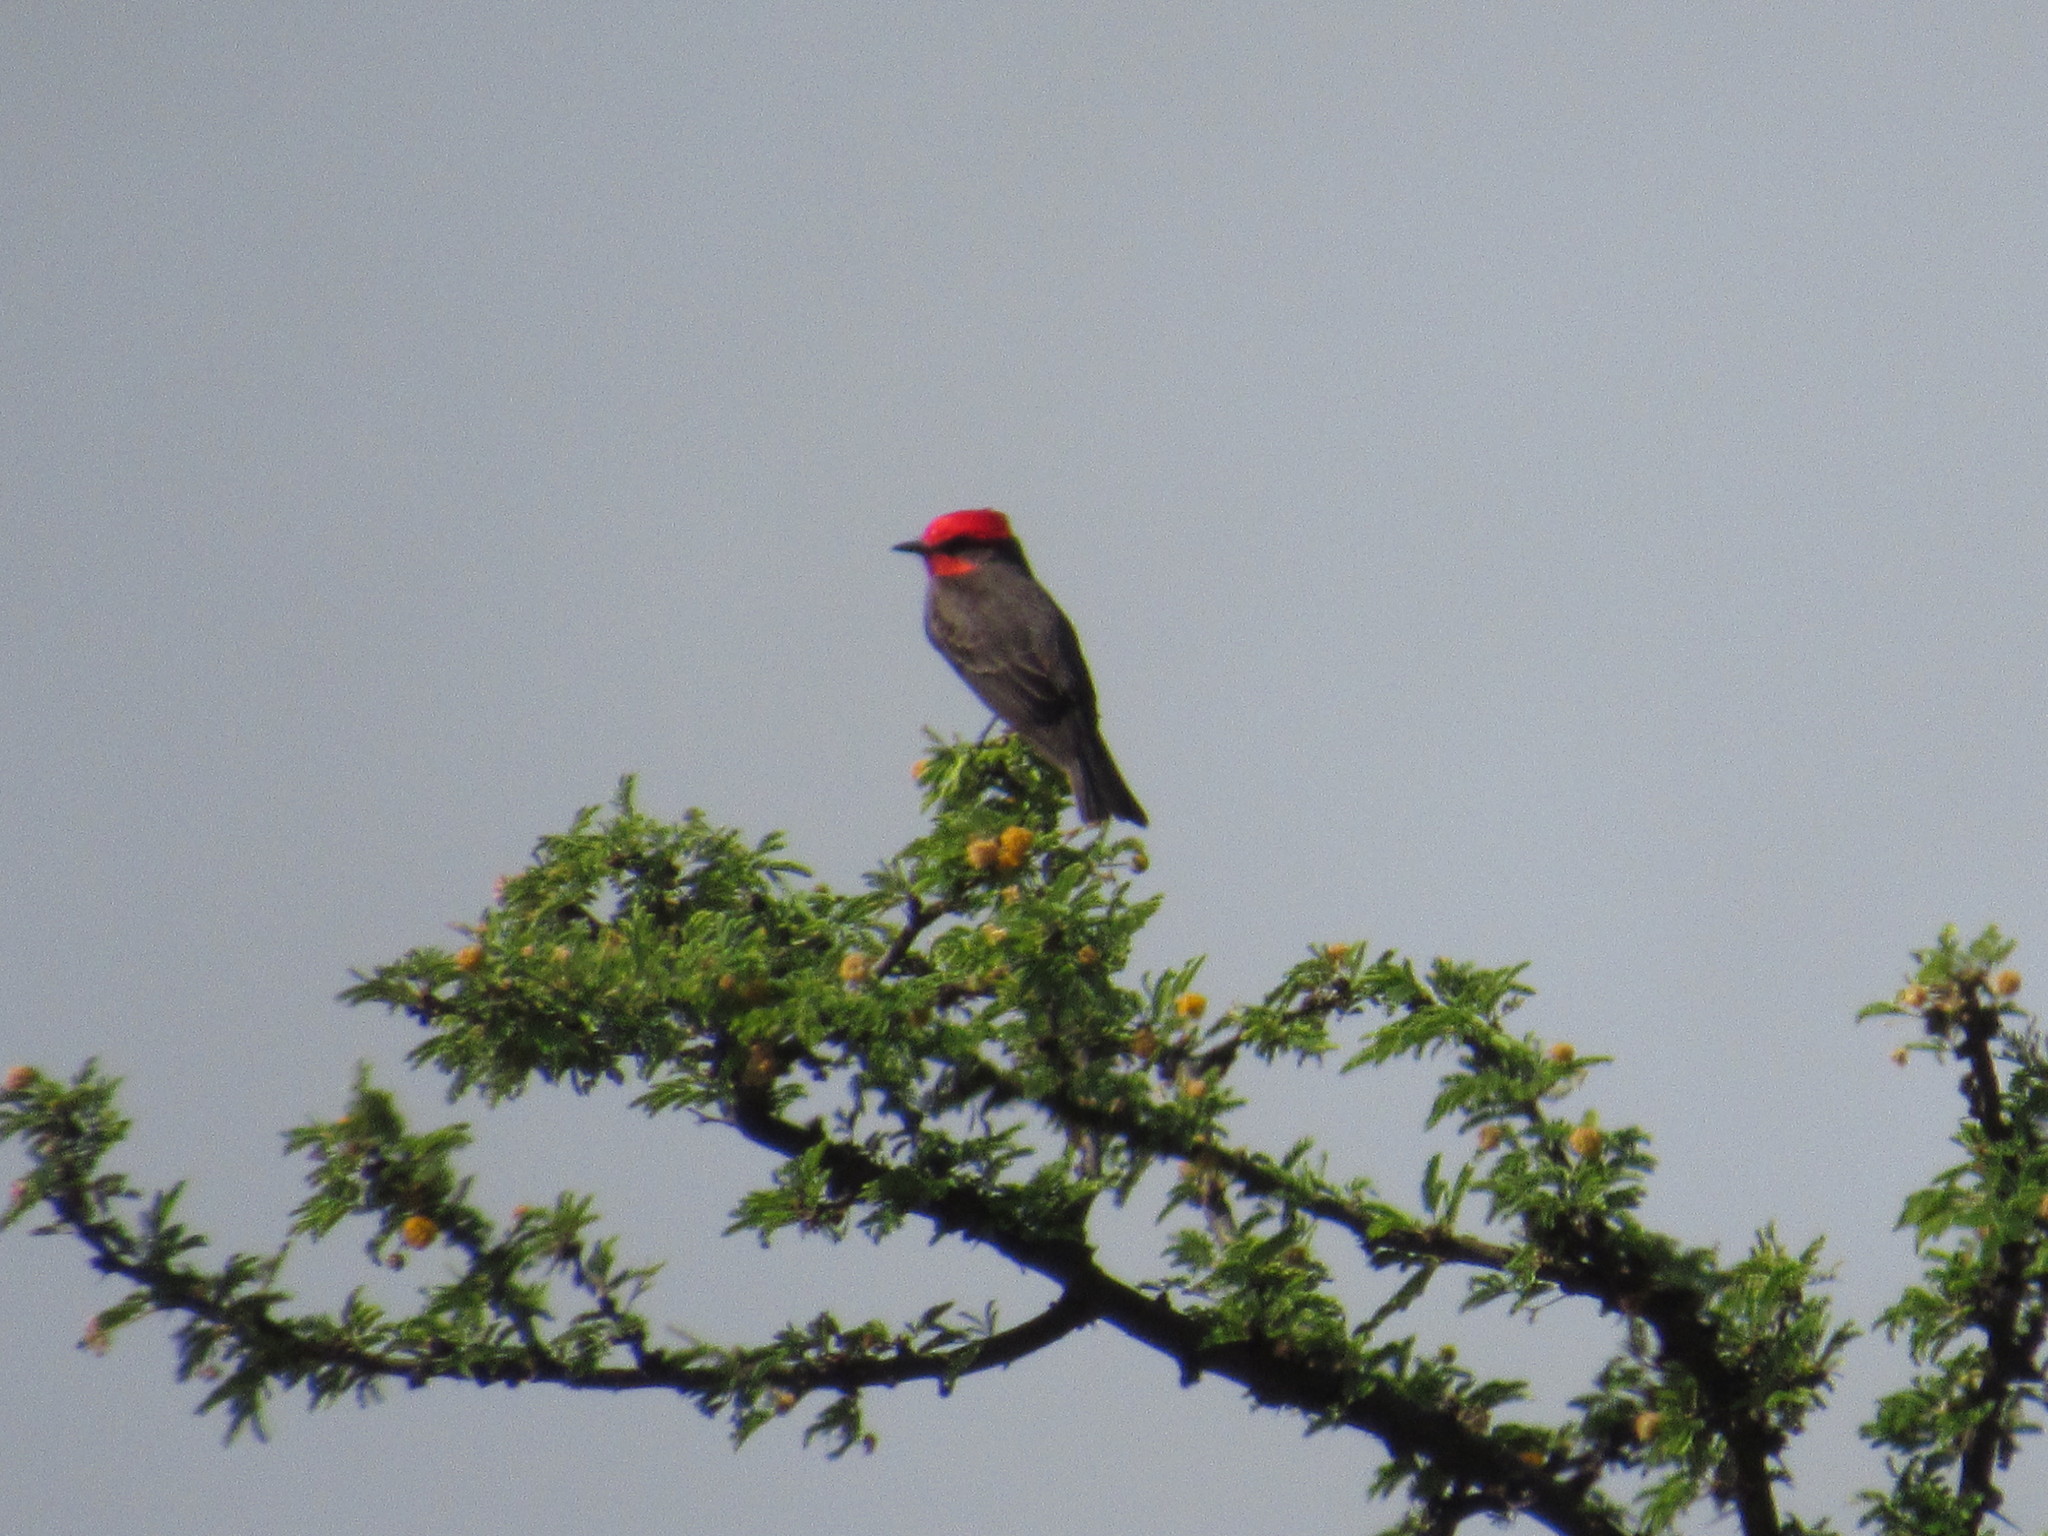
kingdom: Animalia
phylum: Chordata
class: Aves
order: Passeriformes
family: Tyrannidae
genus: Pyrocephalus
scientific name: Pyrocephalus rubinus
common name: Vermilion flycatcher
